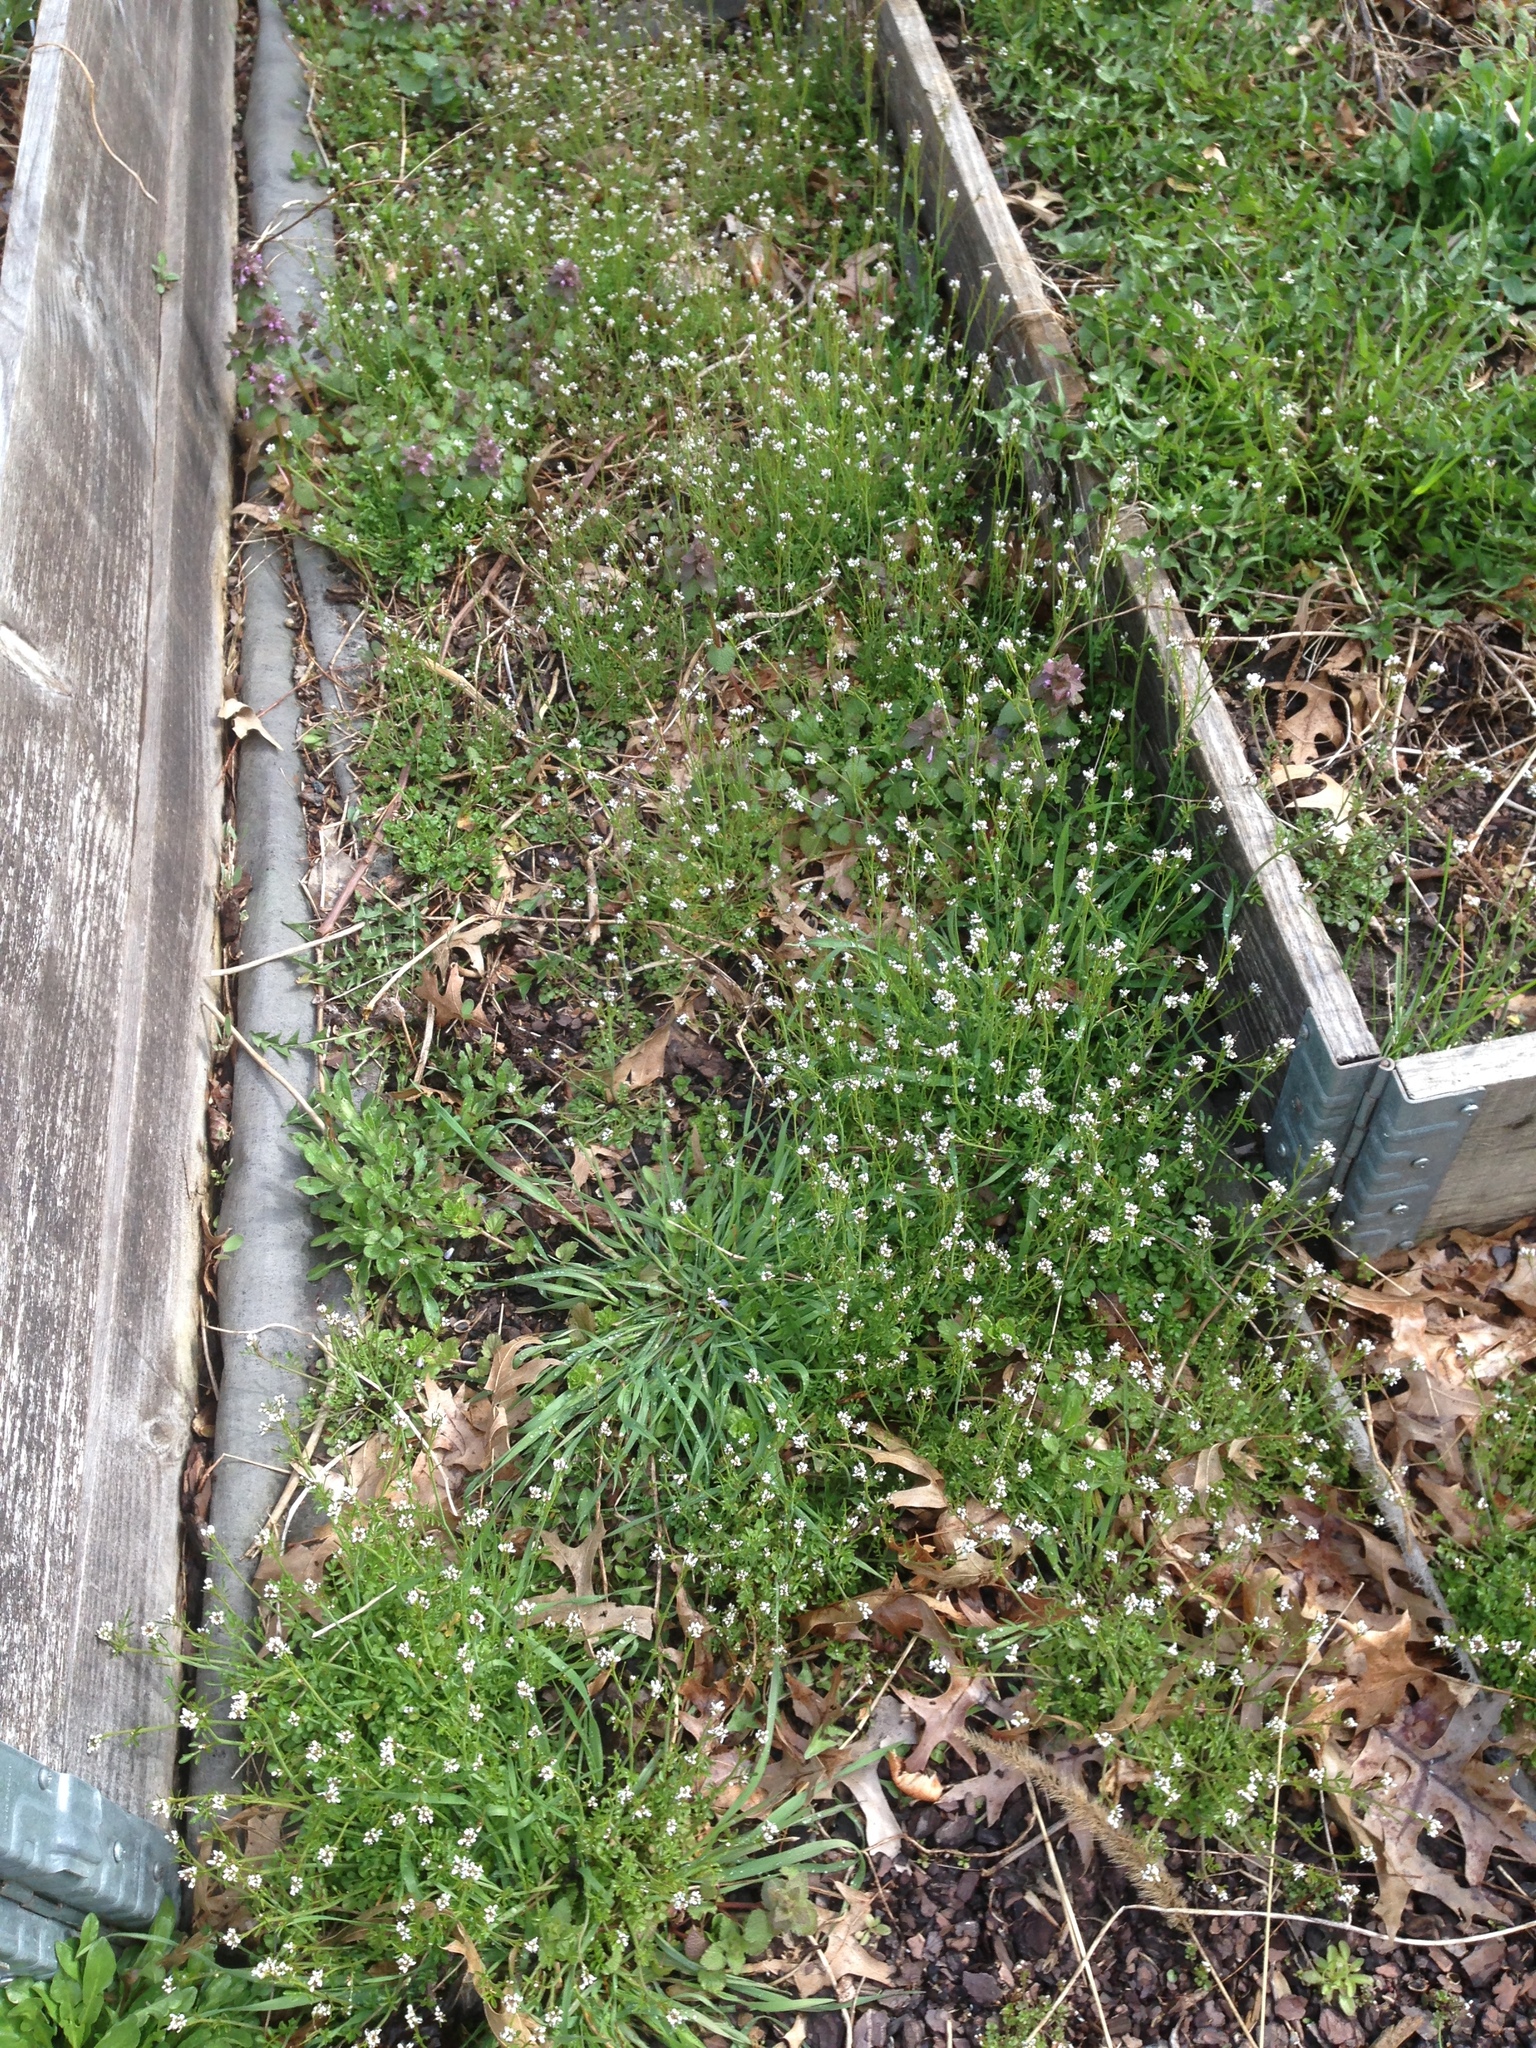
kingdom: Plantae
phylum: Tracheophyta
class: Magnoliopsida
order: Brassicales
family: Brassicaceae
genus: Cardamine
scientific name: Cardamine hirsuta
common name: Hairy bittercress
